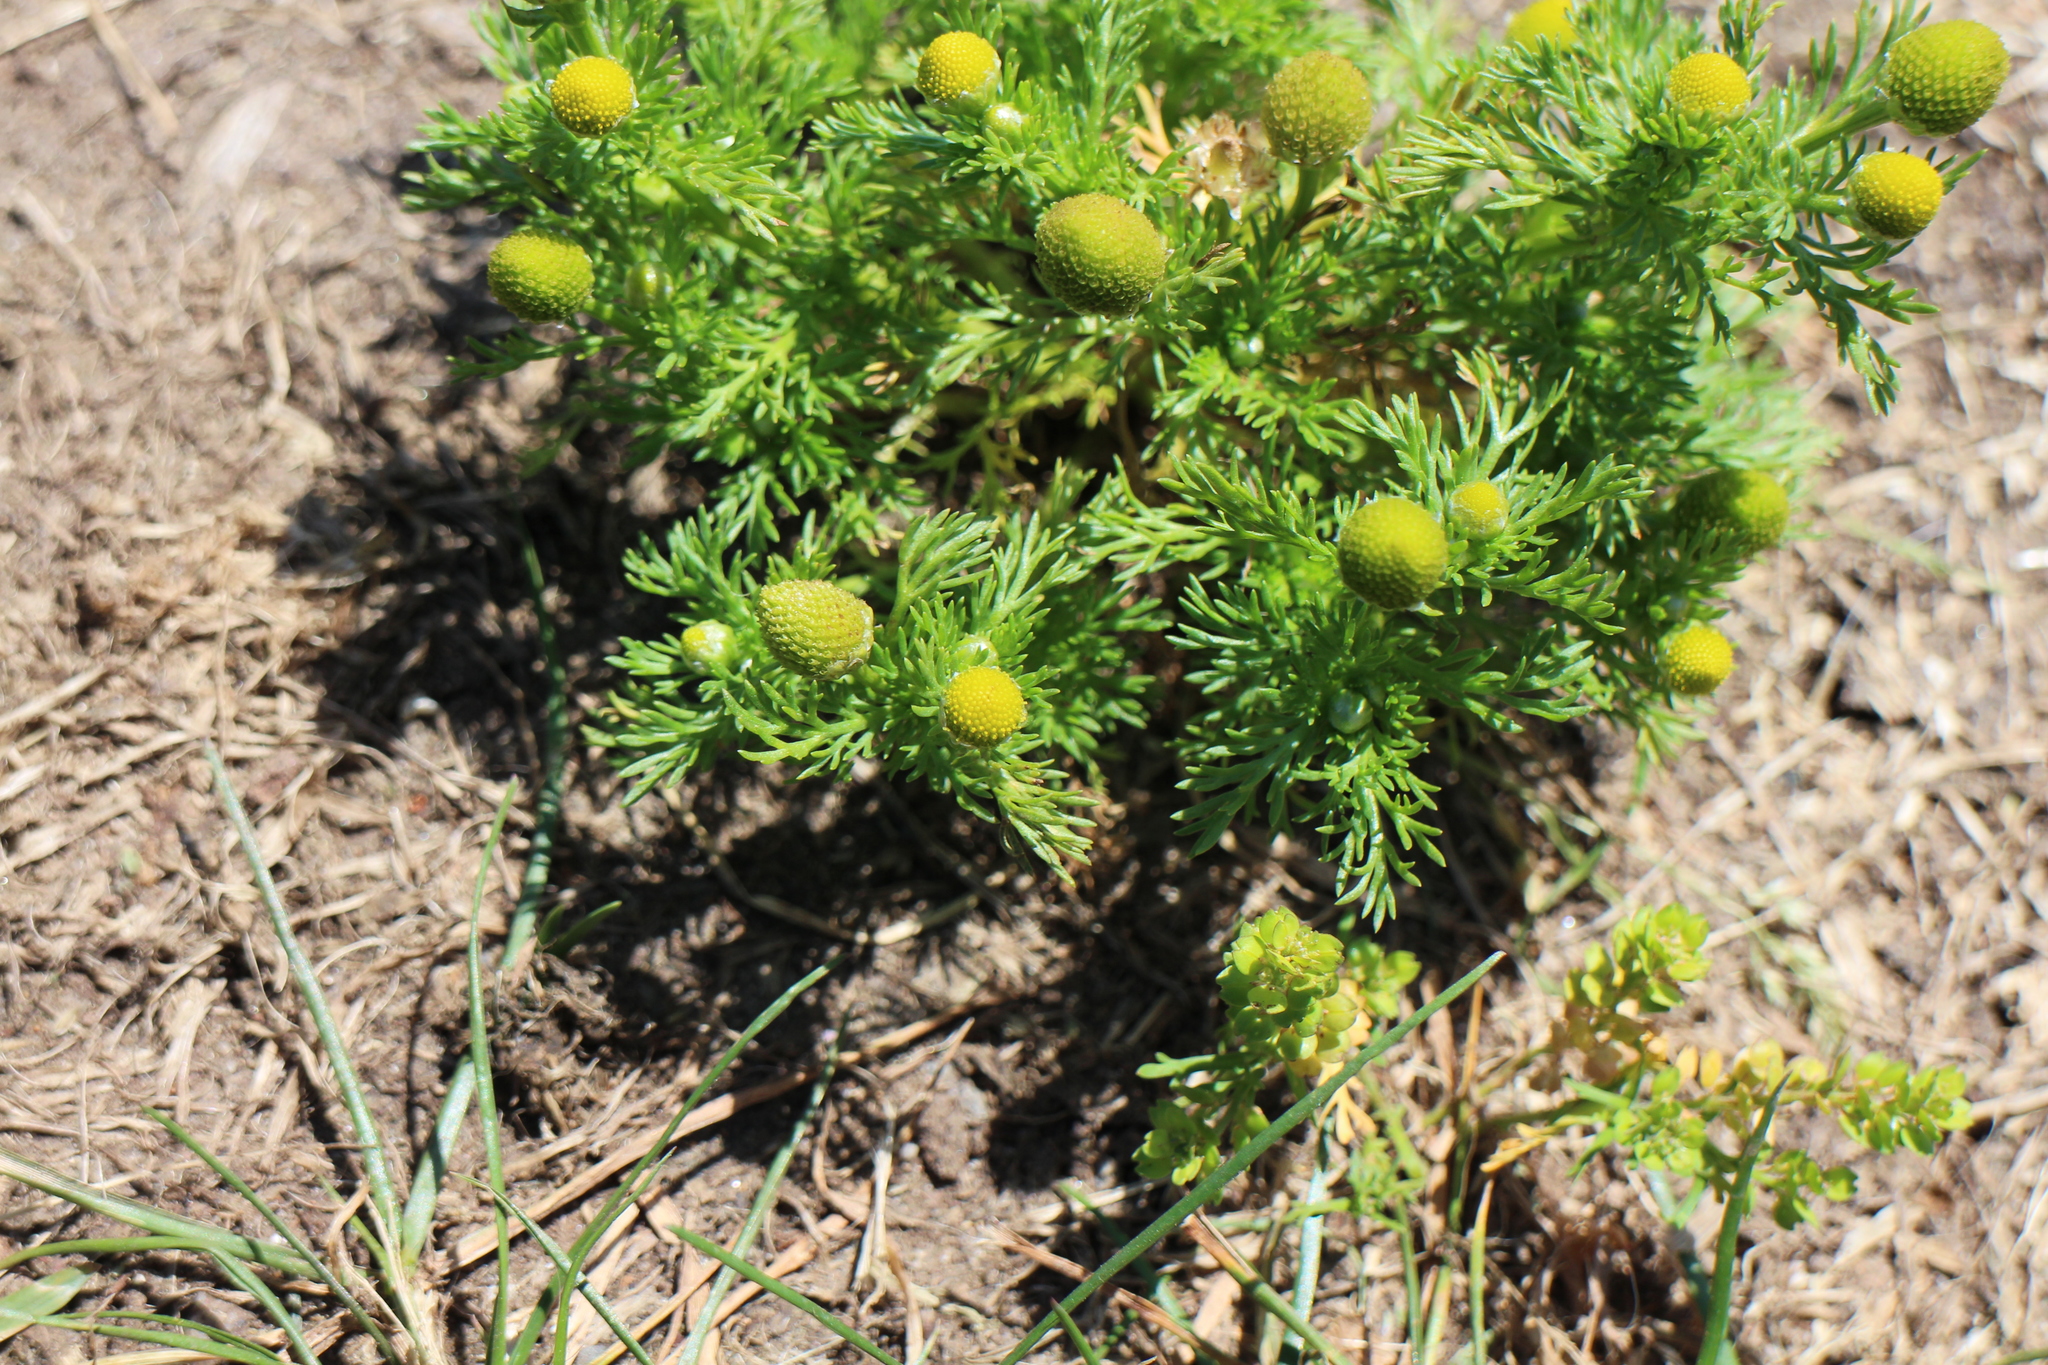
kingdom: Plantae
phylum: Tracheophyta
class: Magnoliopsida
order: Asterales
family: Asteraceae
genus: Matricaria
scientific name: Matricaria discoidea
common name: Disc mayweed
